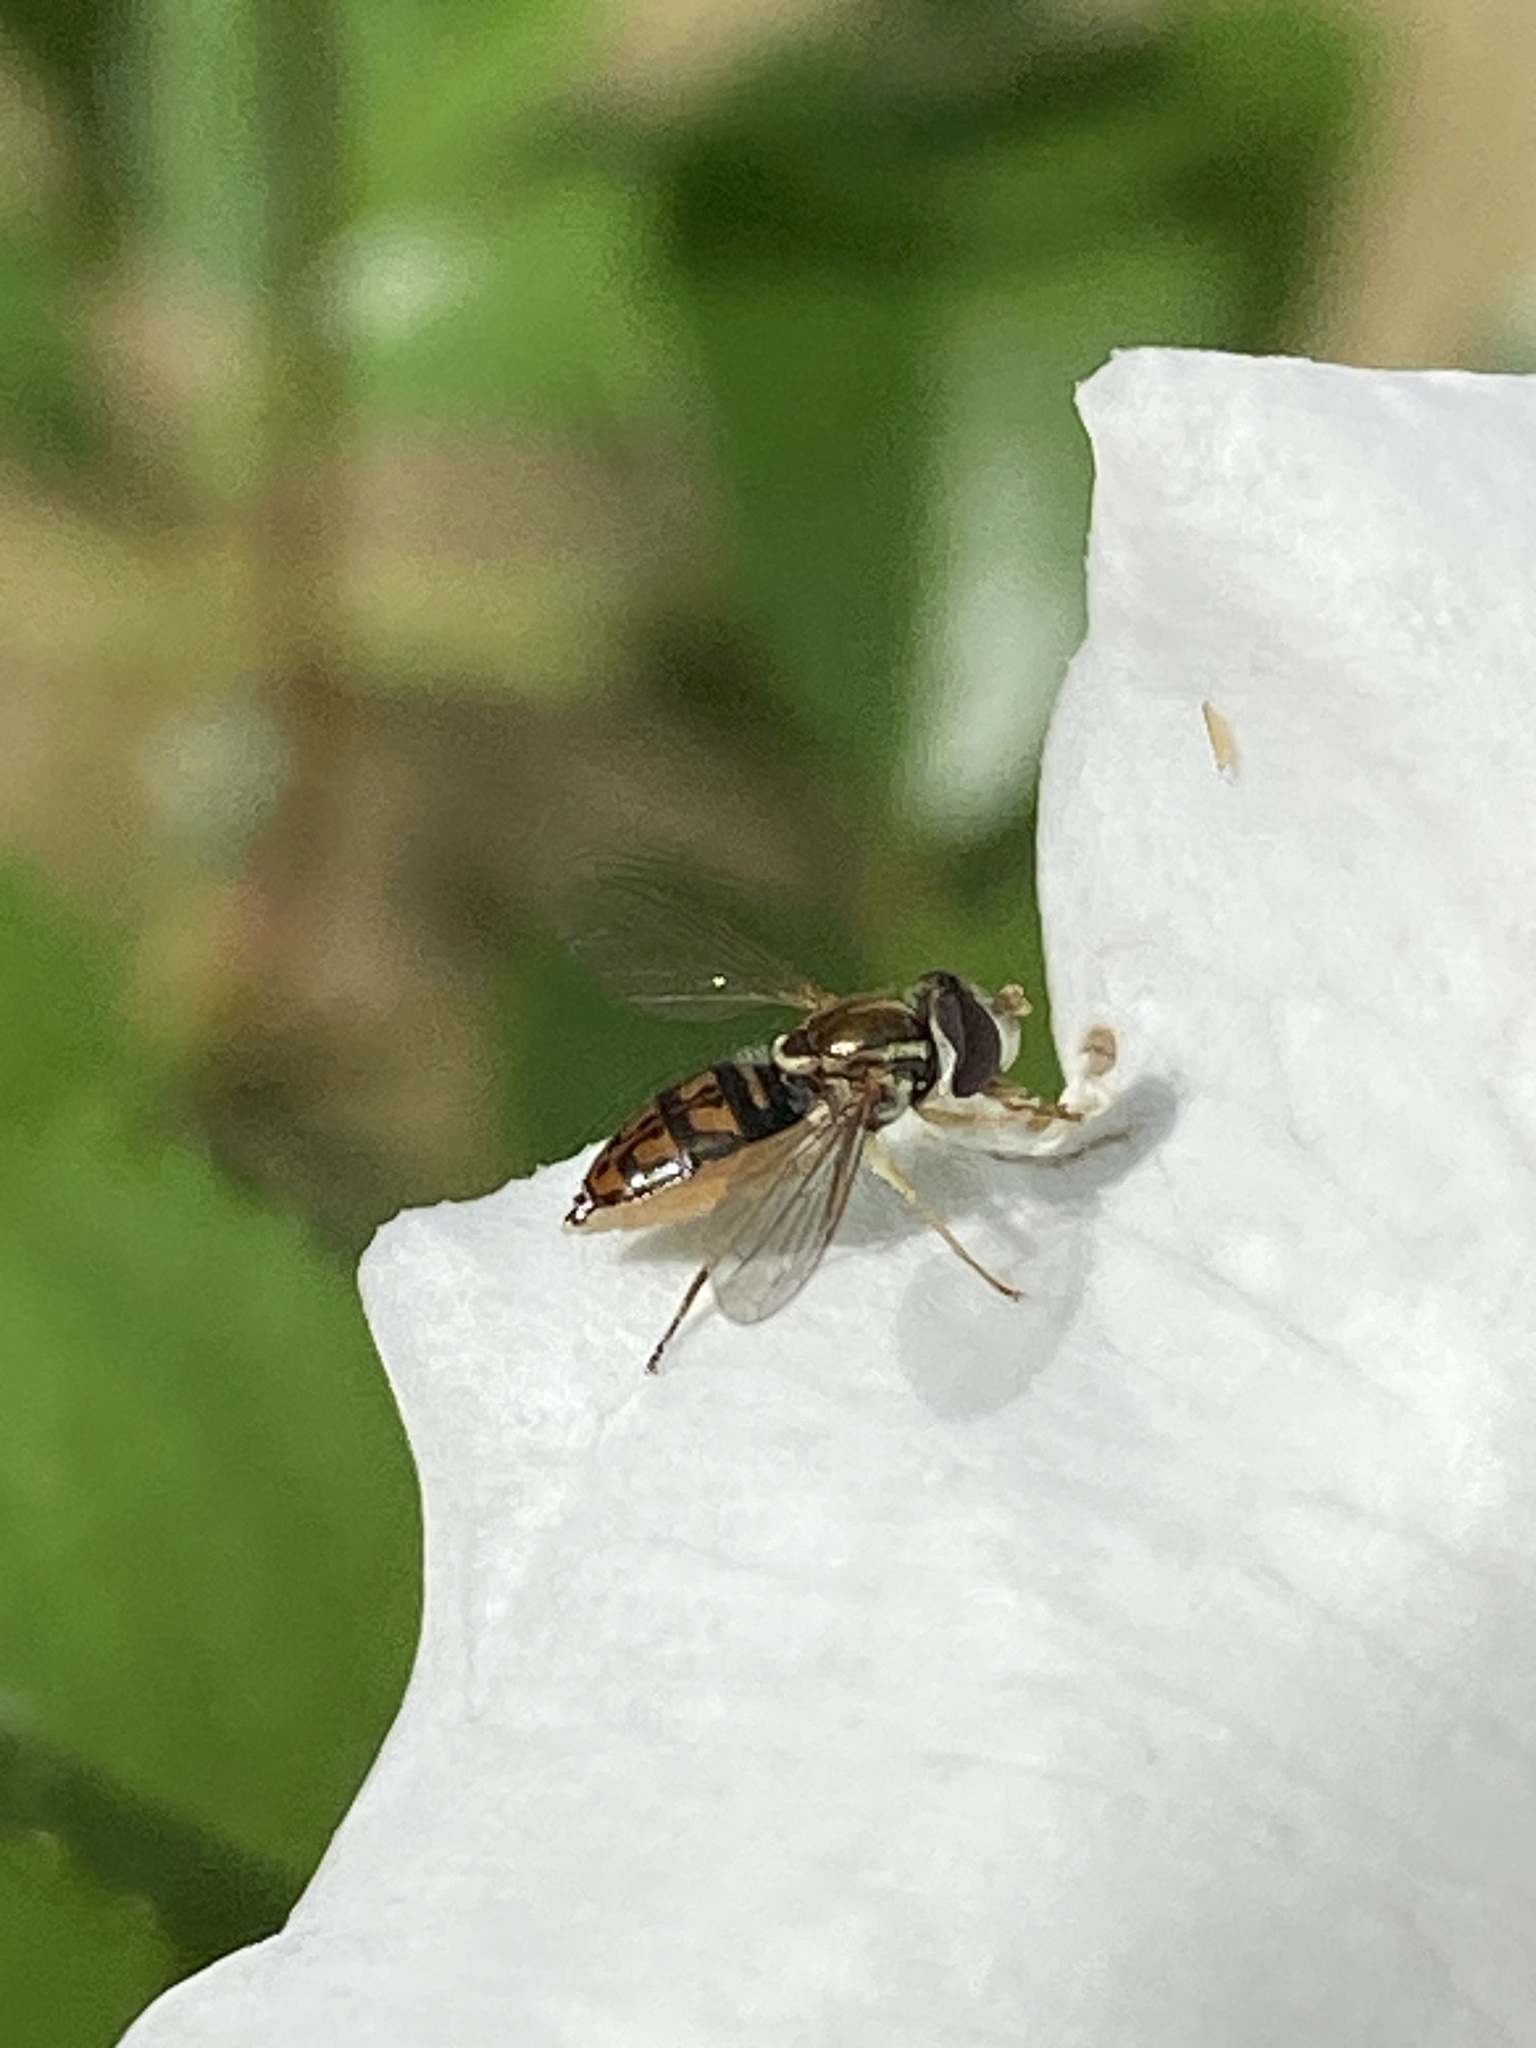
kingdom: Animalia
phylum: Arthropoda
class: Insecta
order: Diptera
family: Syrphidae
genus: Toxomerus
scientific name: Toxomerus marginatus
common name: Syrphid fly
